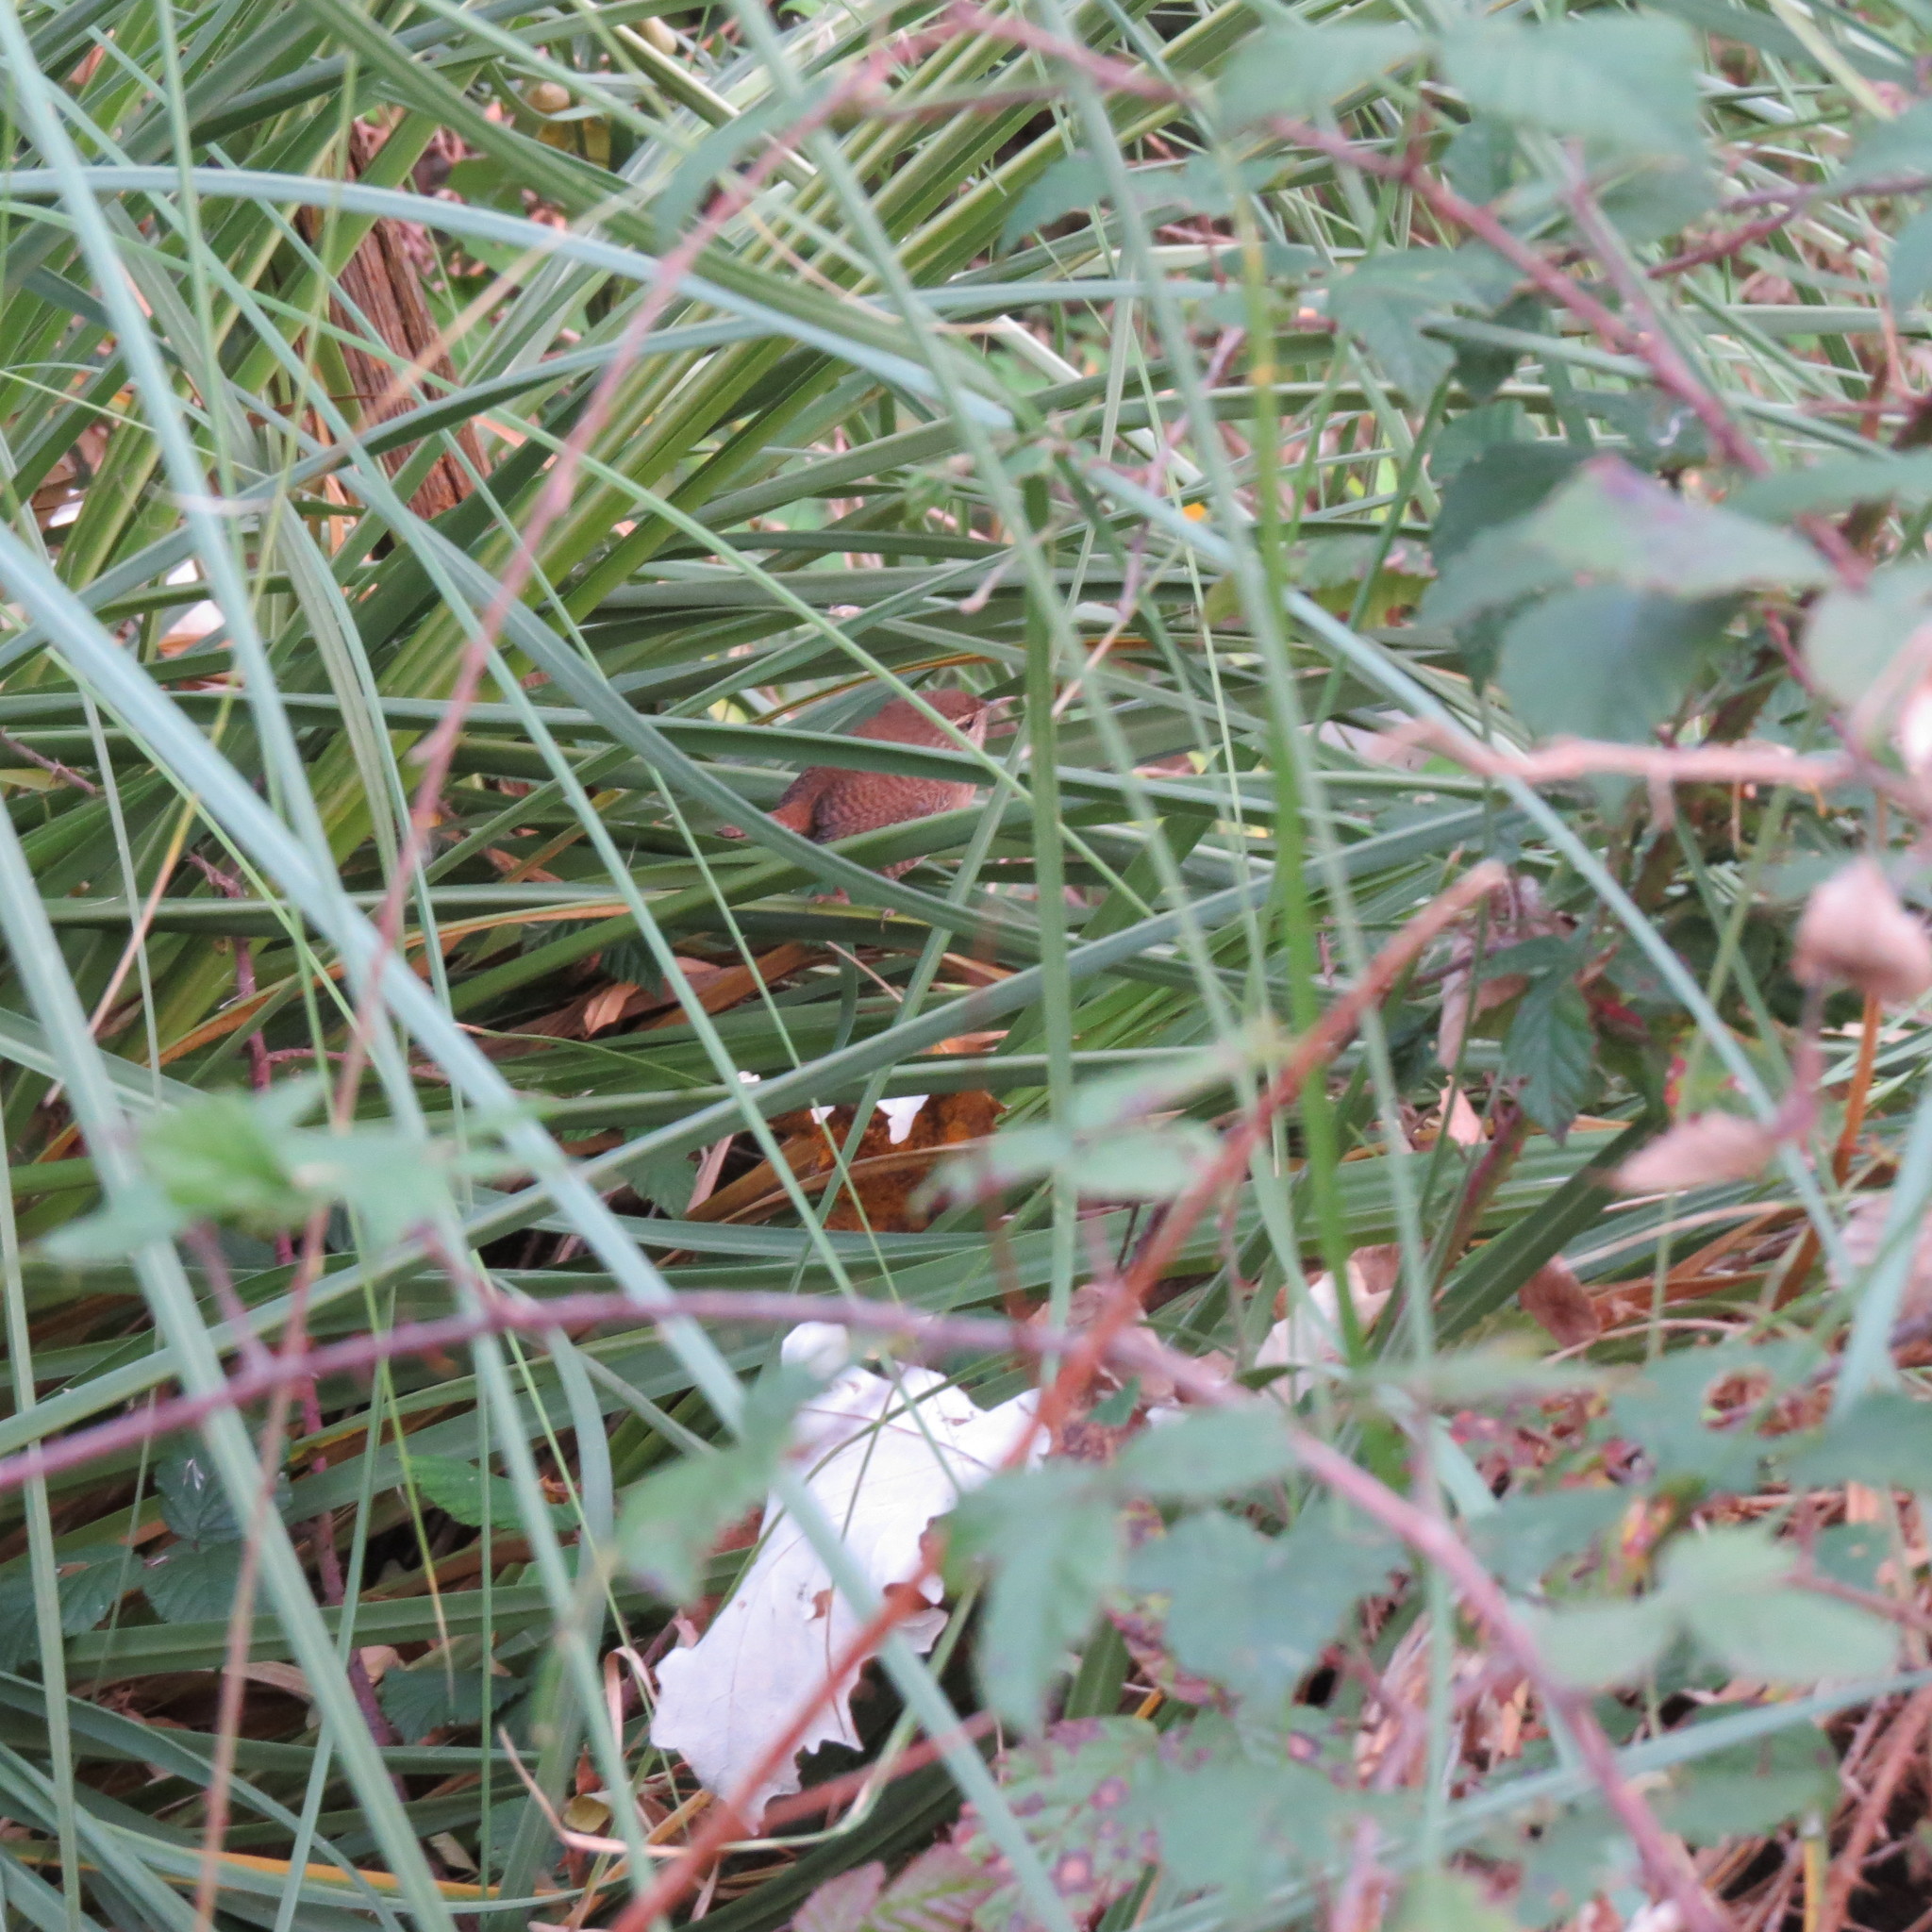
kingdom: Animalia
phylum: Chordata
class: Aves
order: Passeriformes
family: Troglodytidae
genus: Troglodytes
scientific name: Troglodytes troglodytes
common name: Eurasian wren
